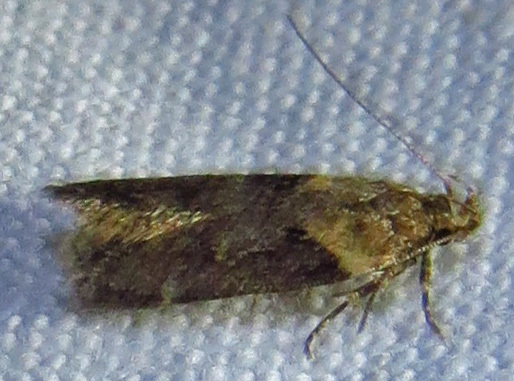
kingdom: Animalia
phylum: Arthropoda
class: Insecta
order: Lepidoptera
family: Gelechiidae
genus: Chionodes
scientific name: Chionodes mediofuscella
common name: Black-smudged chionodes moth
